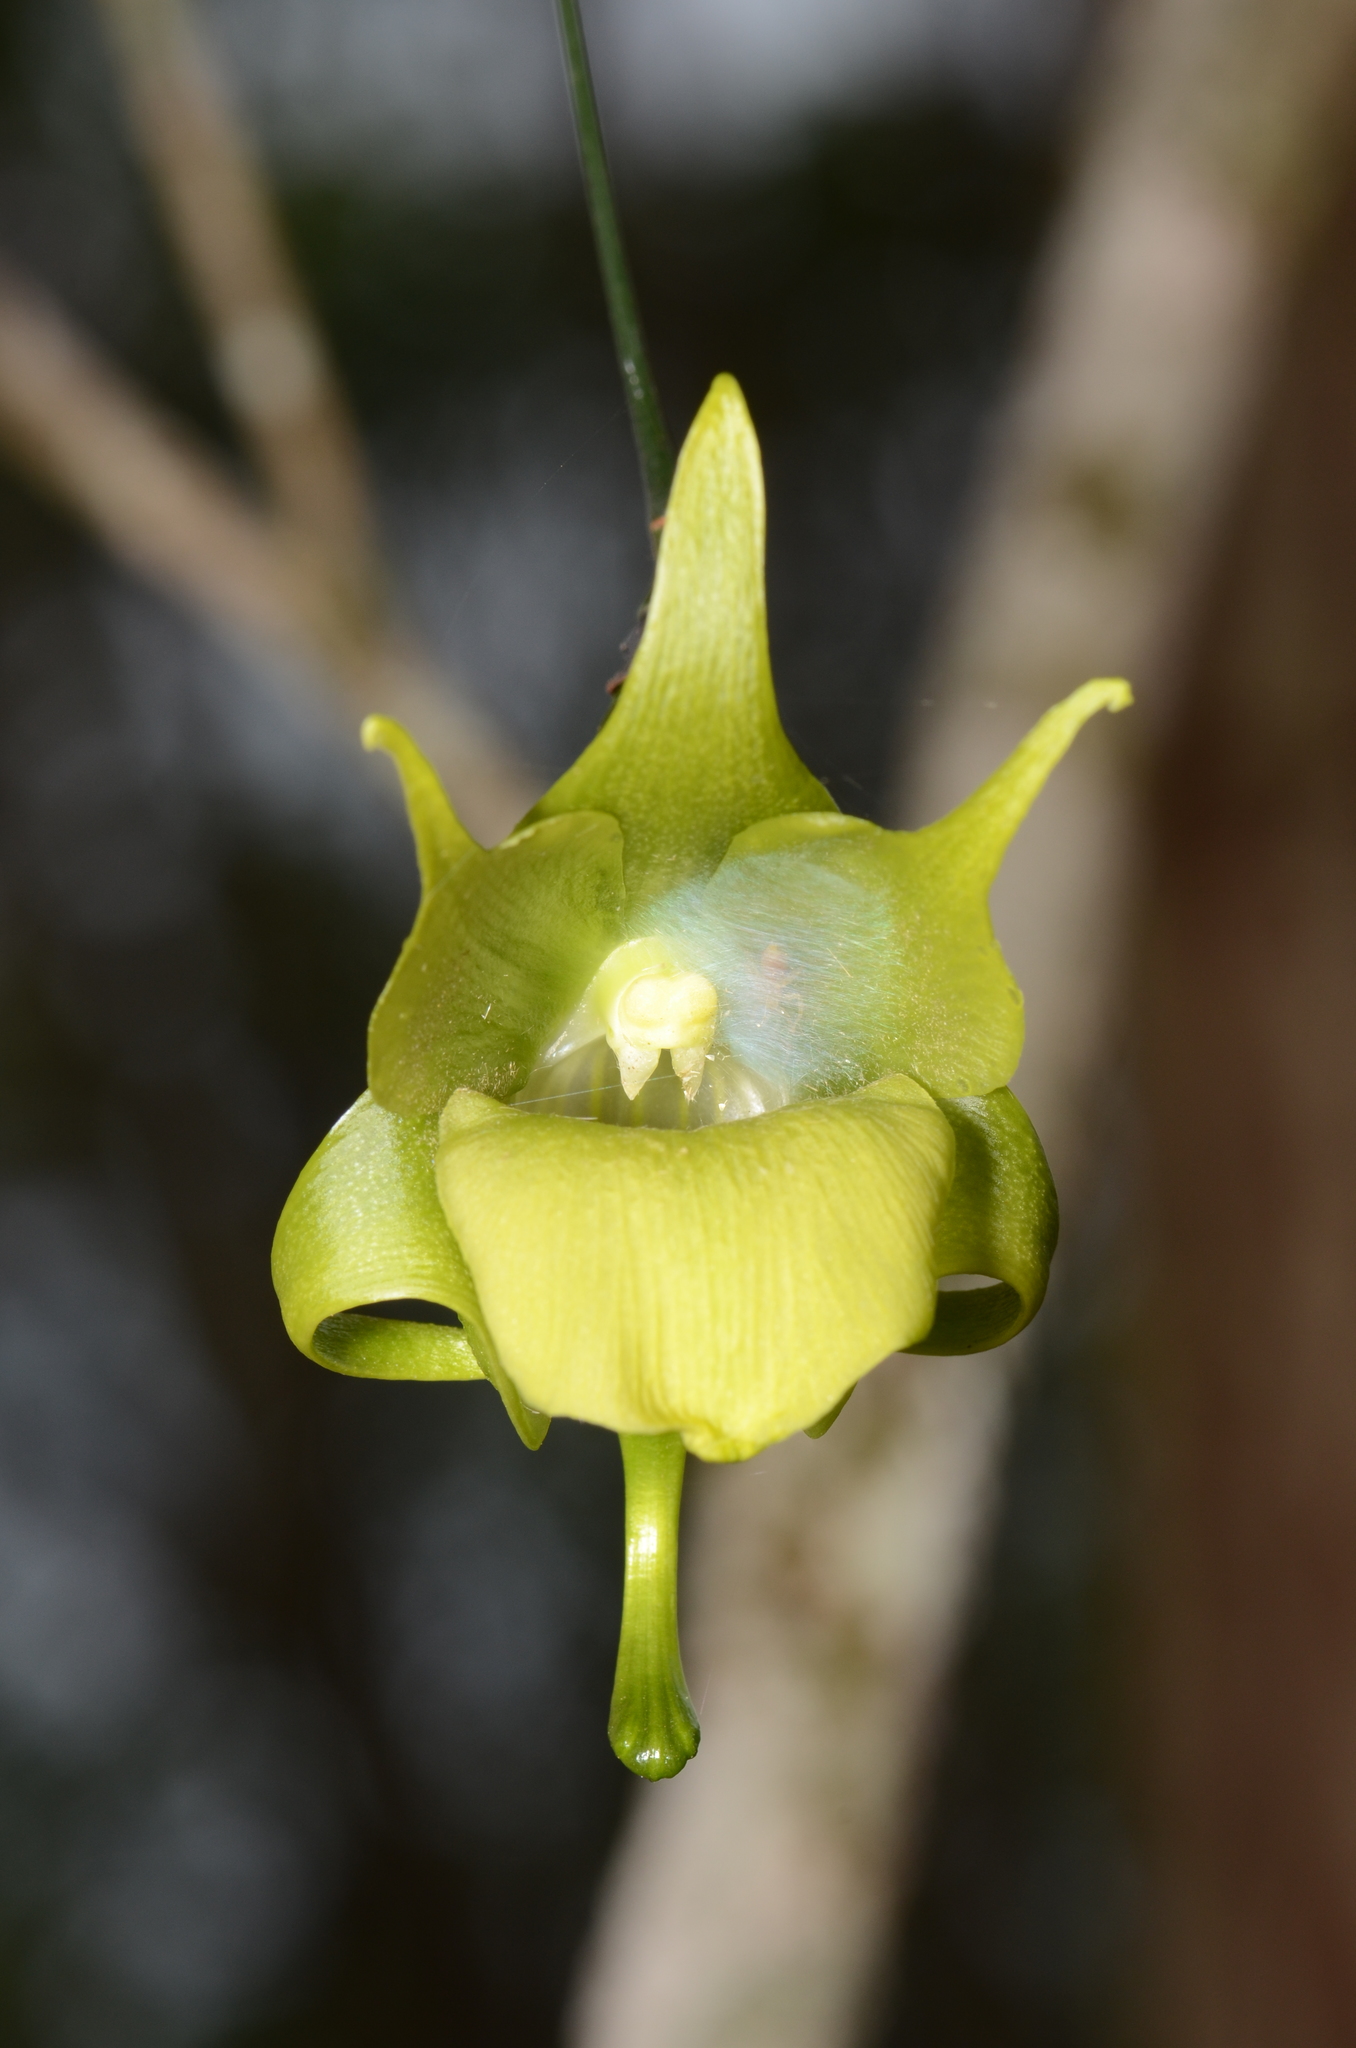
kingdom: Plantae
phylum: Tracheophyta
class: Liliopsida
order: Asparagales
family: Orchidaceae
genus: Aeranthes
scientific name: Aeranthes ramosa
